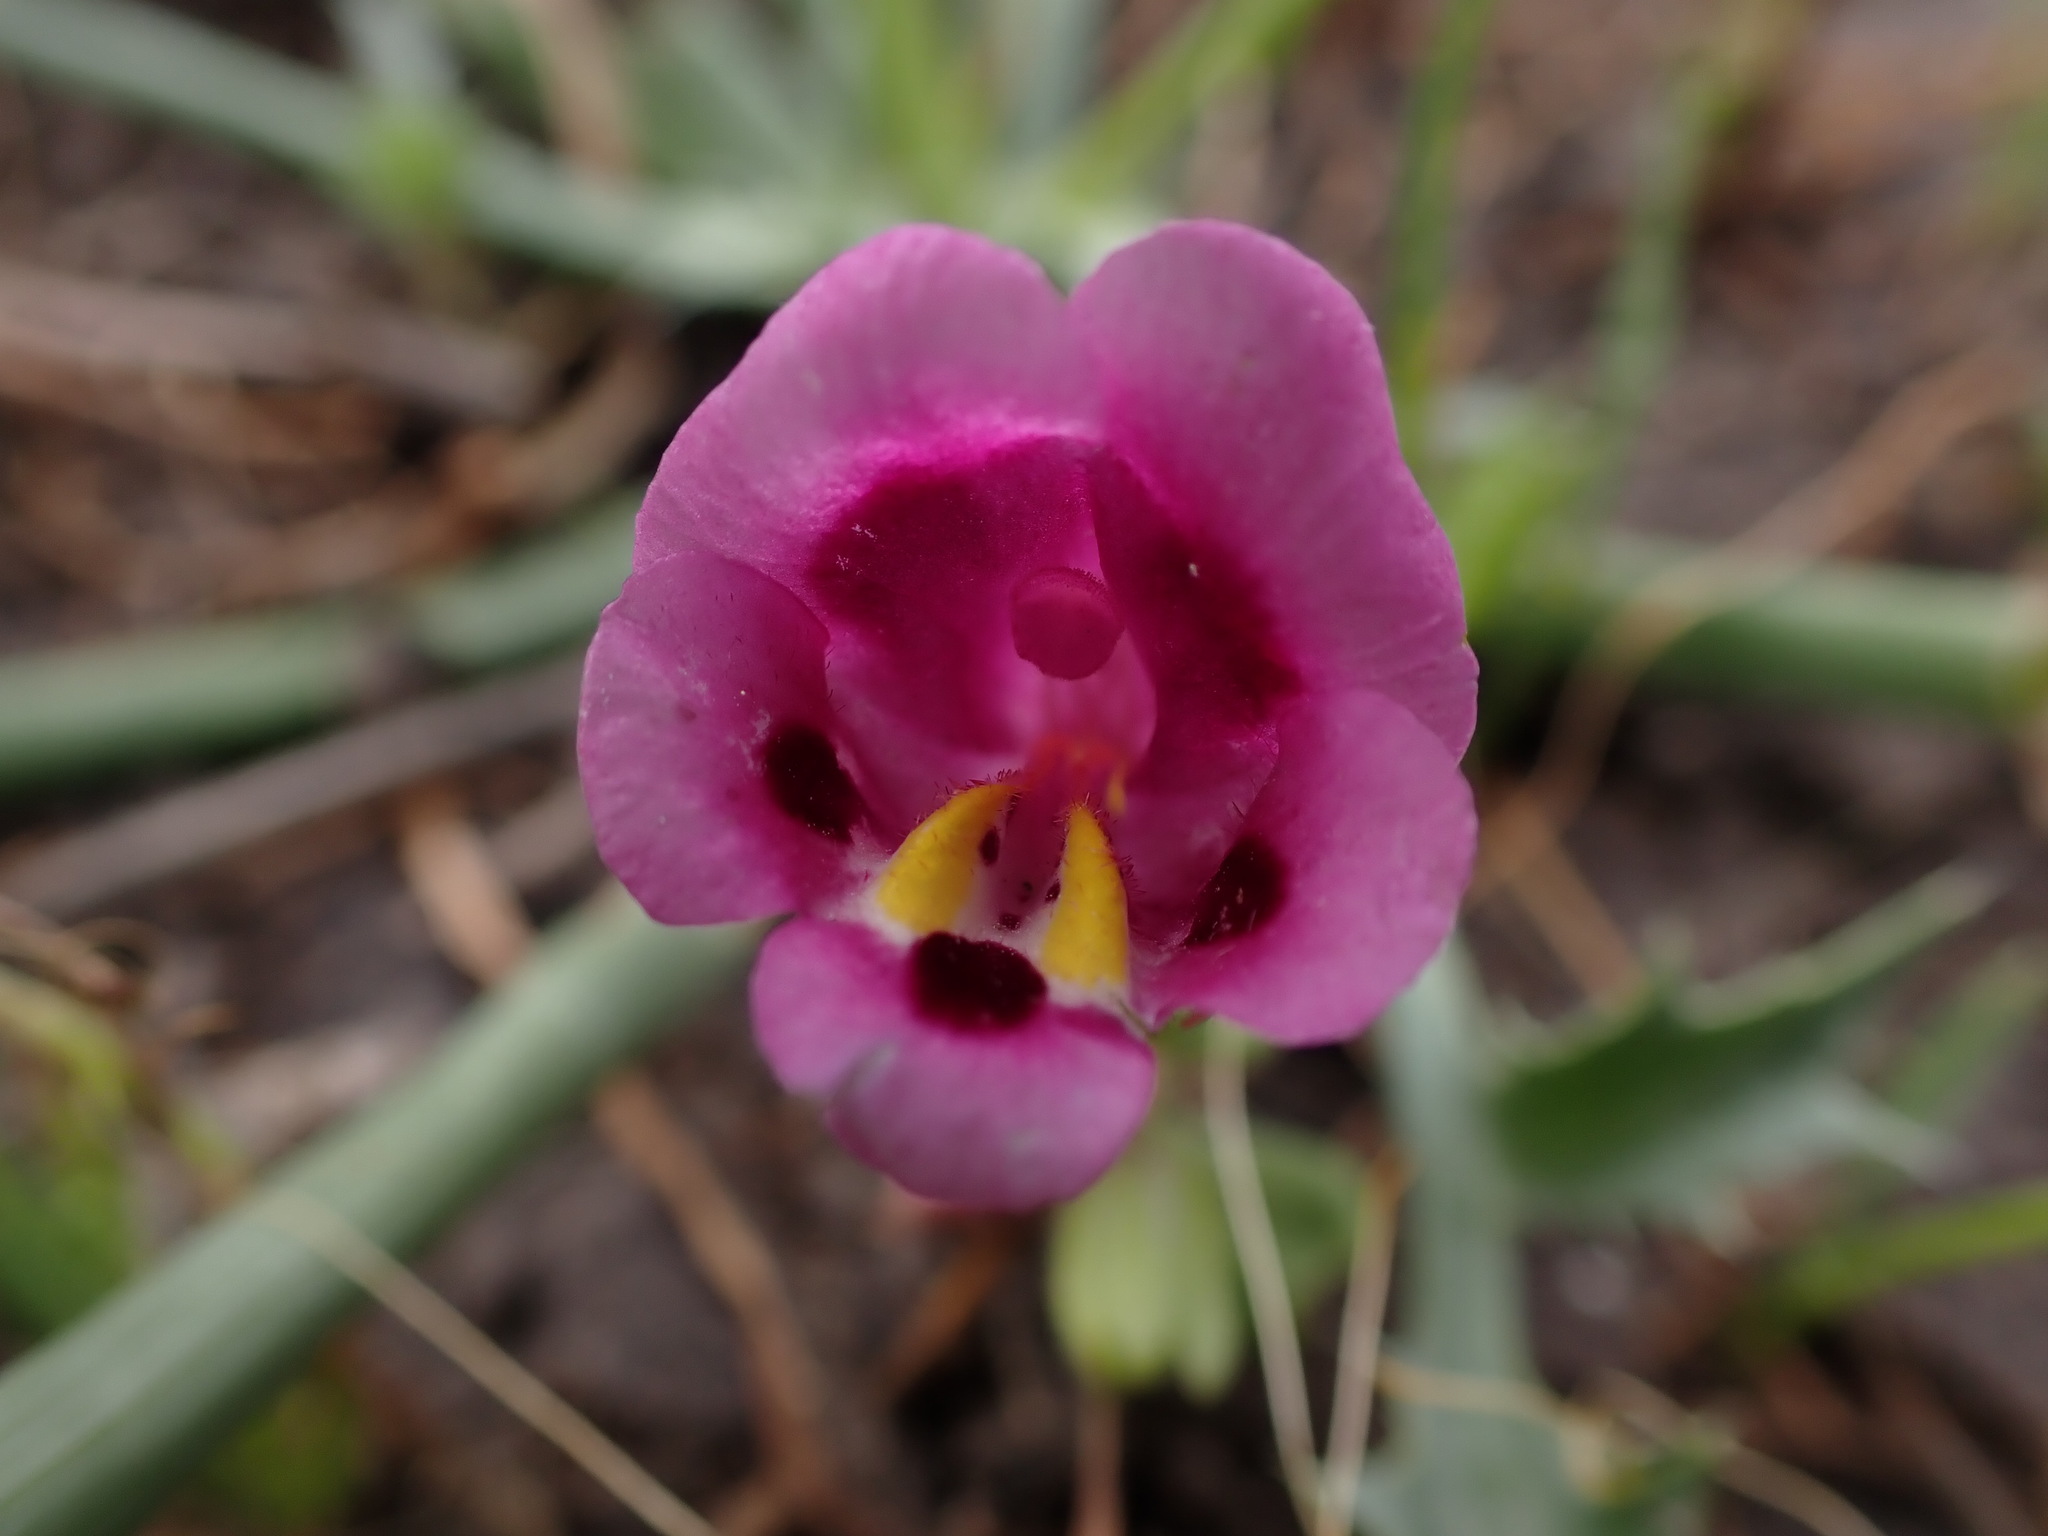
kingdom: Plantae
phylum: Tracheophyta
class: Magnoliopsida
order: Lamiales
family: Phrymaceae
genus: Diplacus
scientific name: Diplacus tricolor
